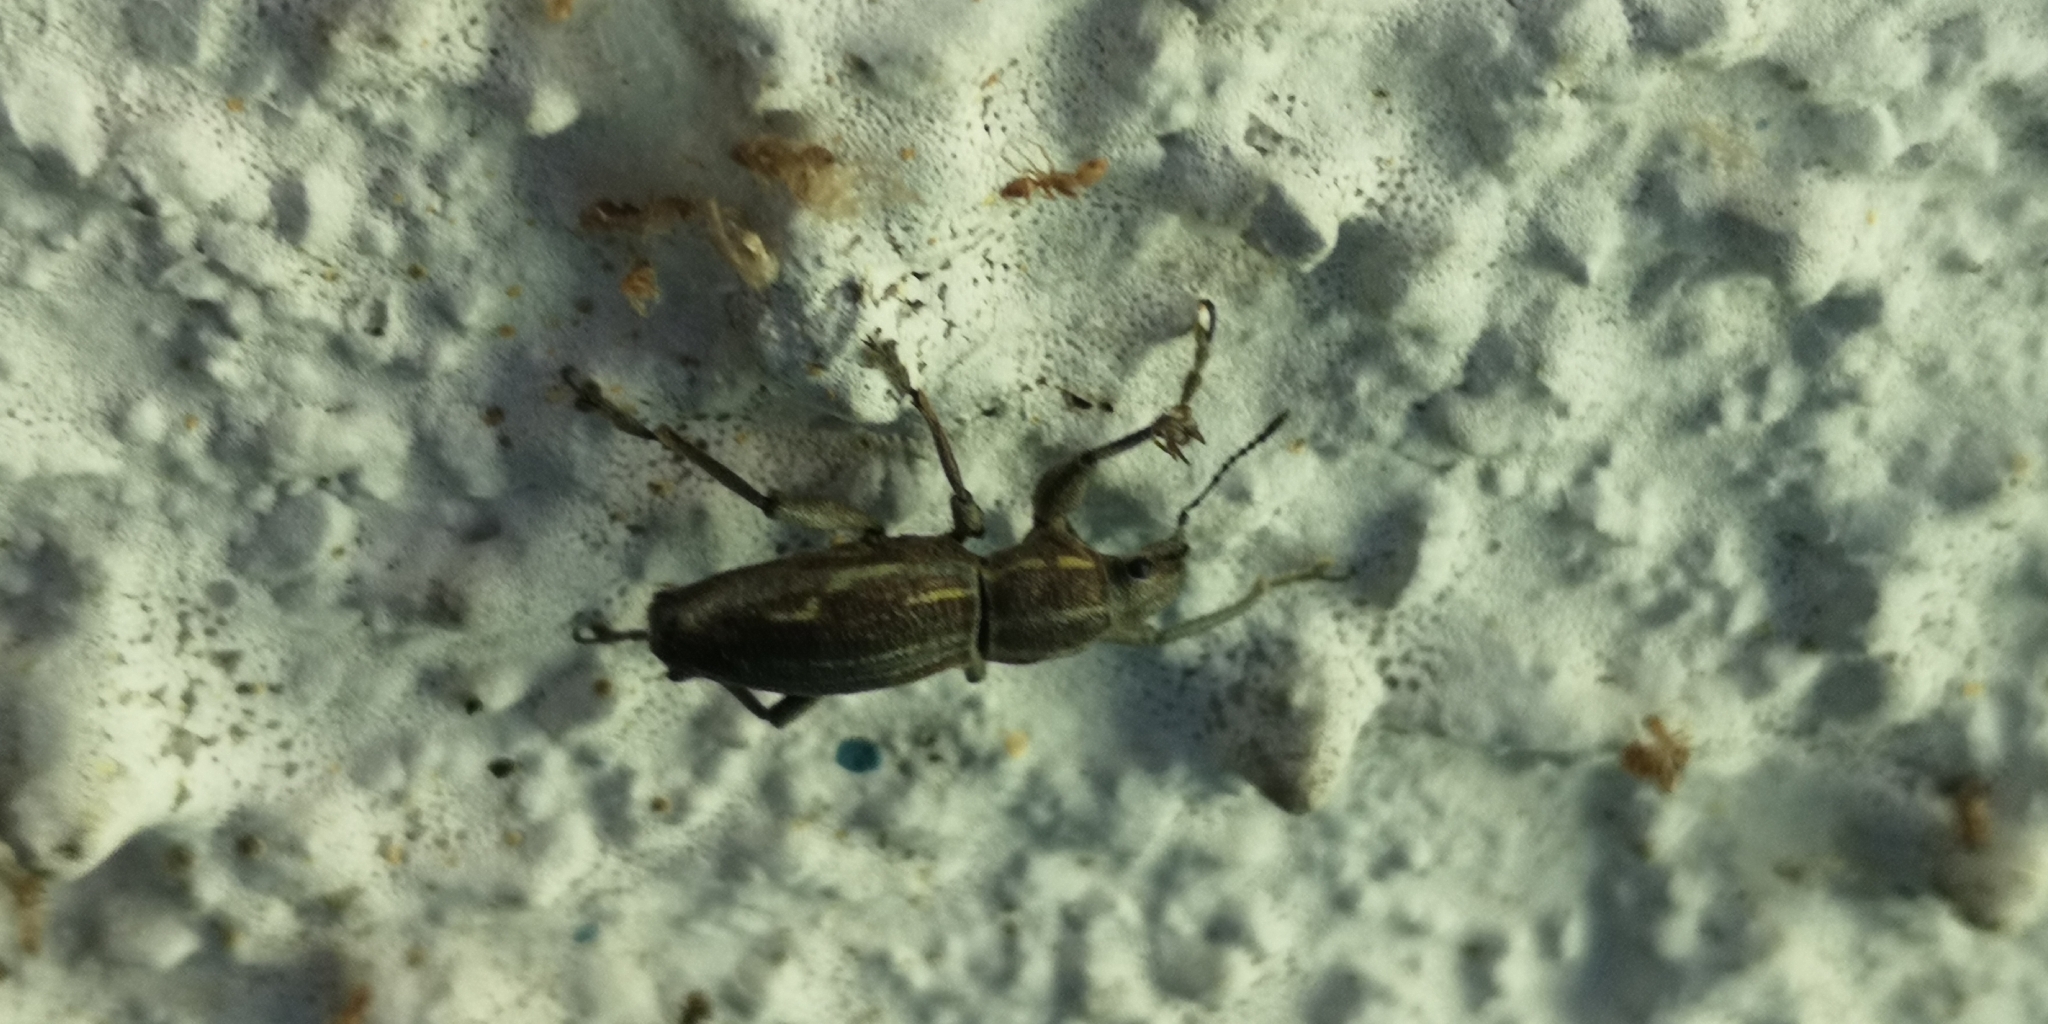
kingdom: Animalia
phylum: Arthropoda
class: Insecta
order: Coleoptera
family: Curculionidae
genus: Naupactus
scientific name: Naupactus xanthographus
